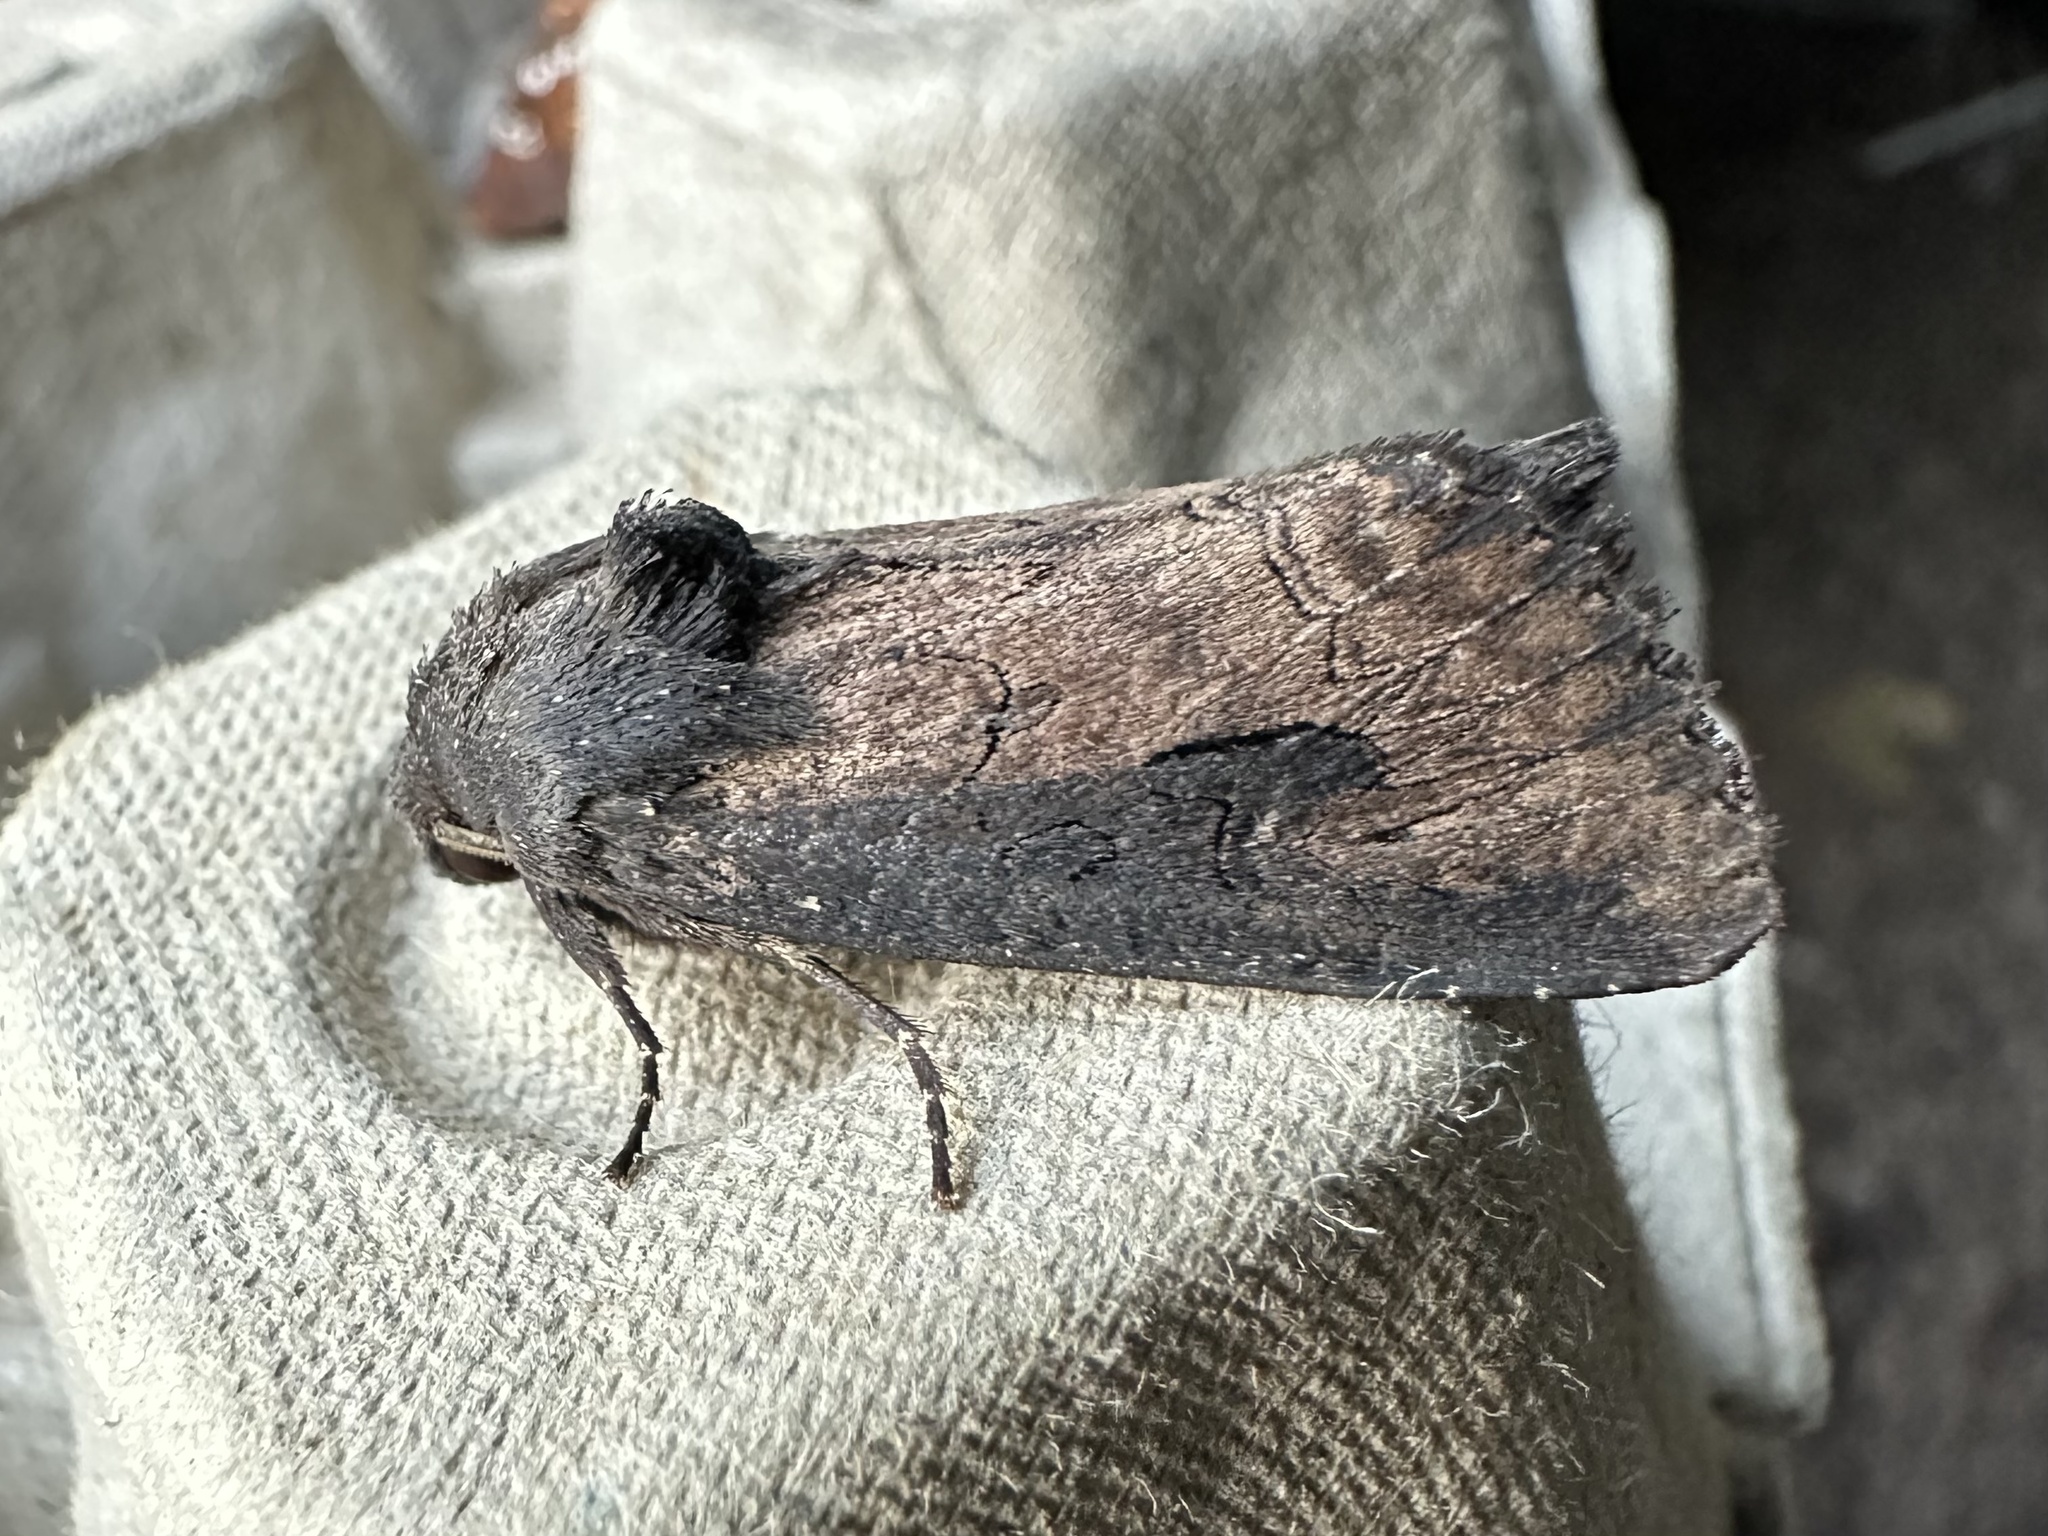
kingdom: Animalia
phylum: Arthropoda
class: Insecta
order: Lepidoptera
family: Noctuidae
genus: Macronoctua
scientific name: Macronoctua onusta
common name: Iris borer
